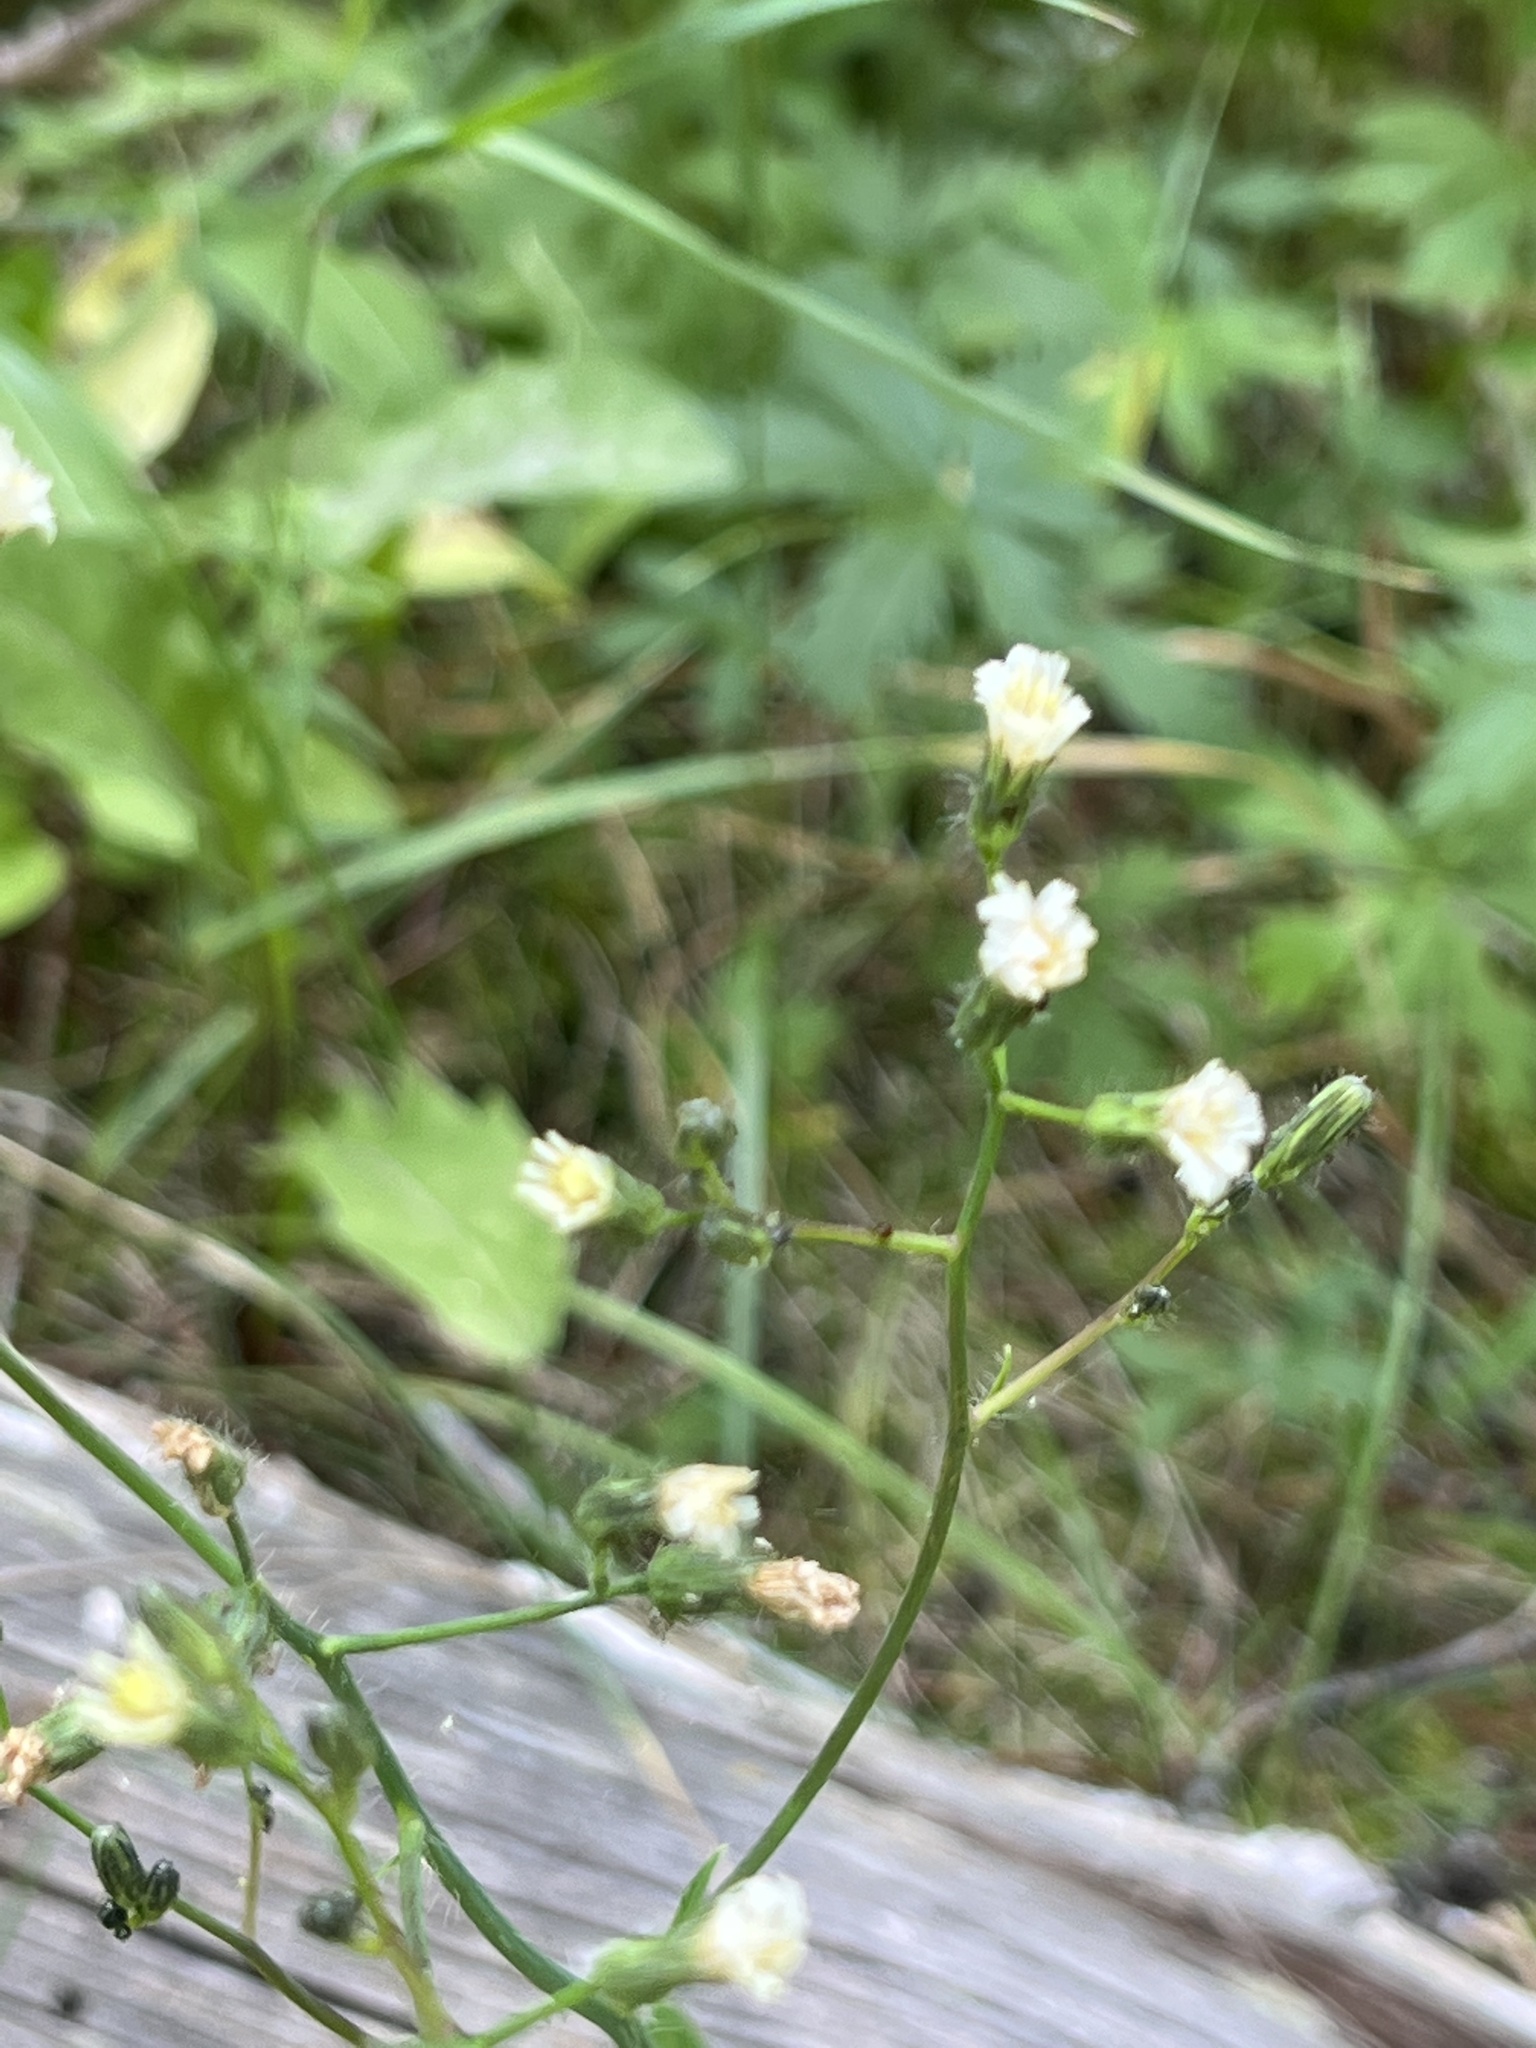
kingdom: Plantae
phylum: Tracheophyta
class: Magnoliopsida
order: Asterales
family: Asteraceae
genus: Hieracium
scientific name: Hieracium albiflorum
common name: White hawkweed
